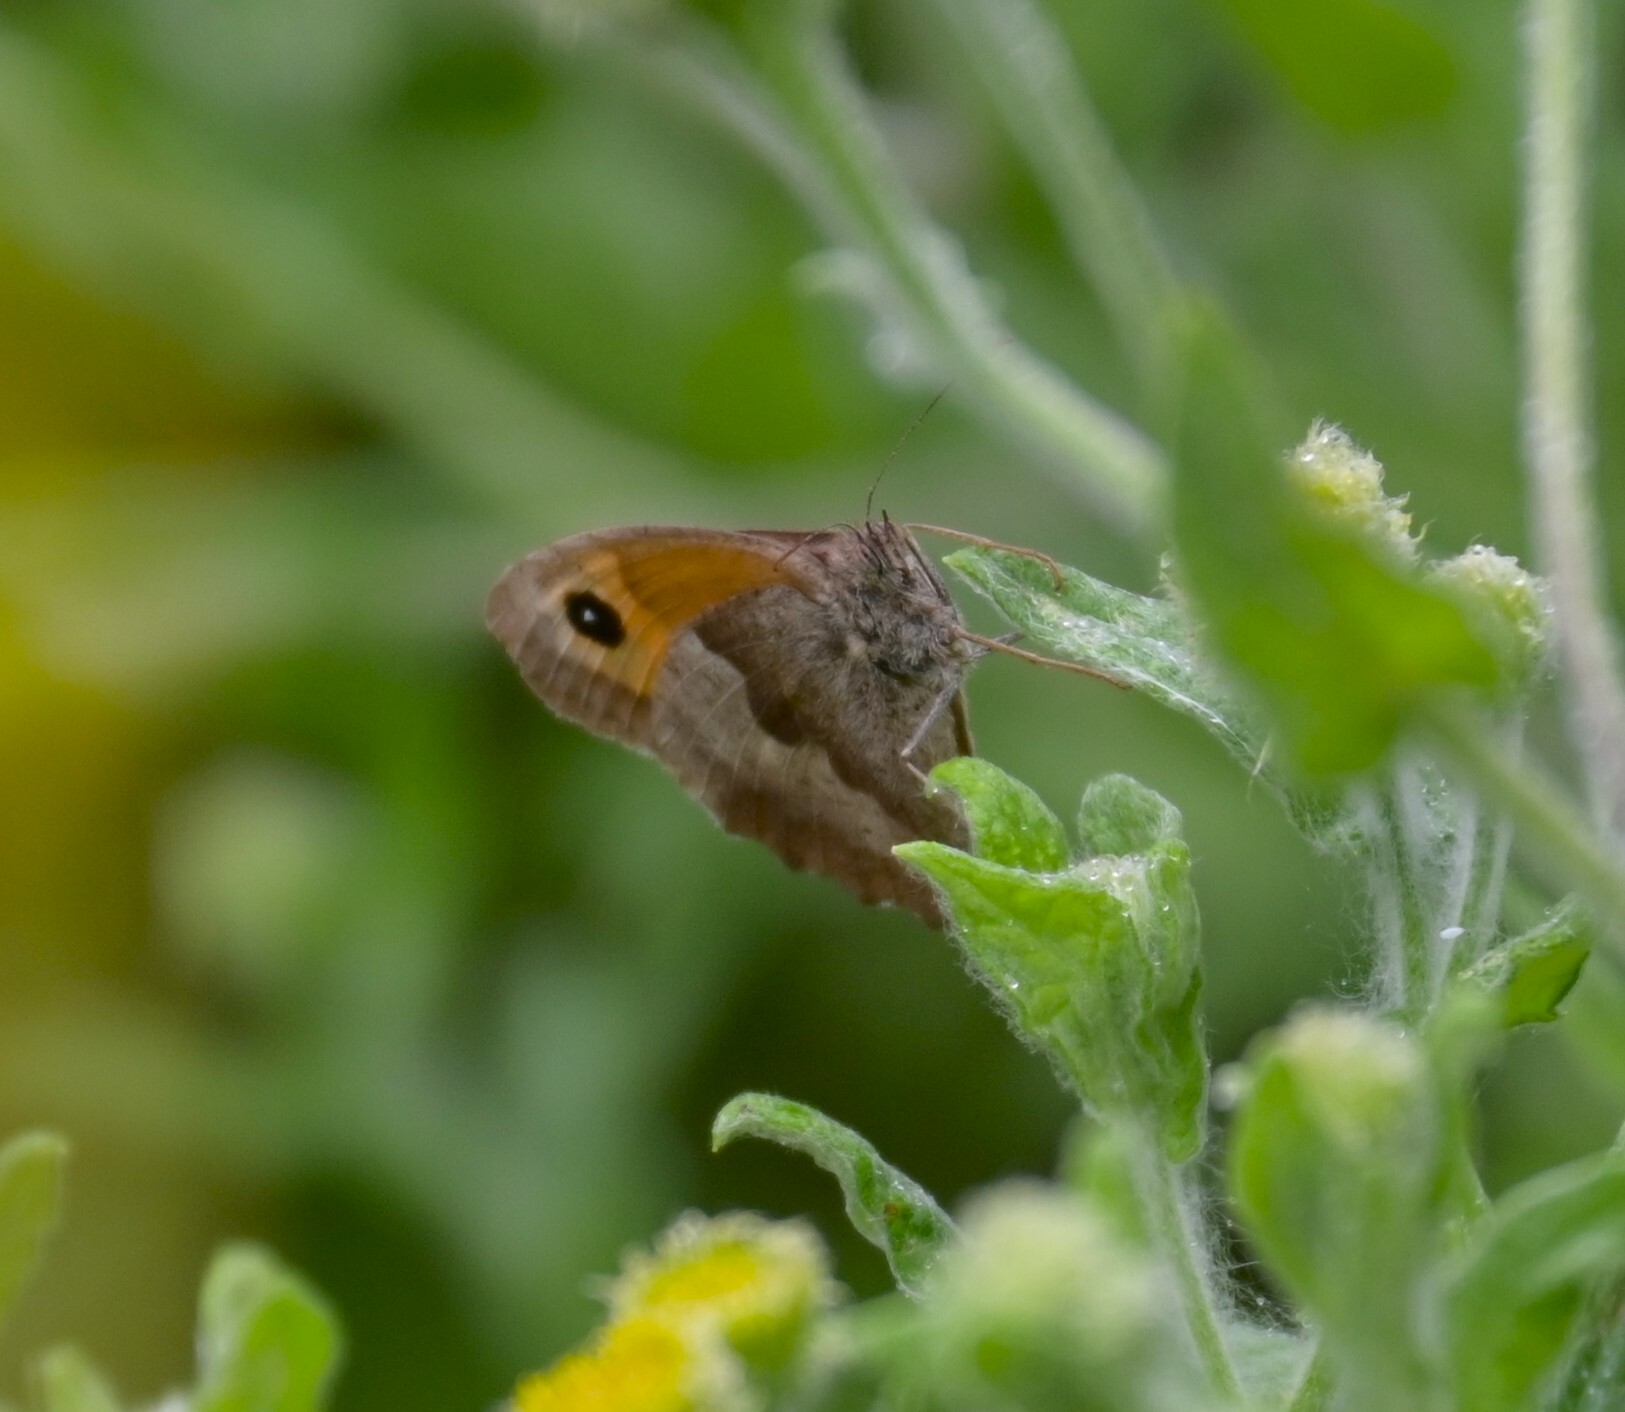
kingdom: Animalia
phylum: Arthropoda
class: Insecta
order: Lepidoptera
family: Nymphalidae
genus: Maniola
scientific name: Maniola jurtina
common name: Meadow brown
